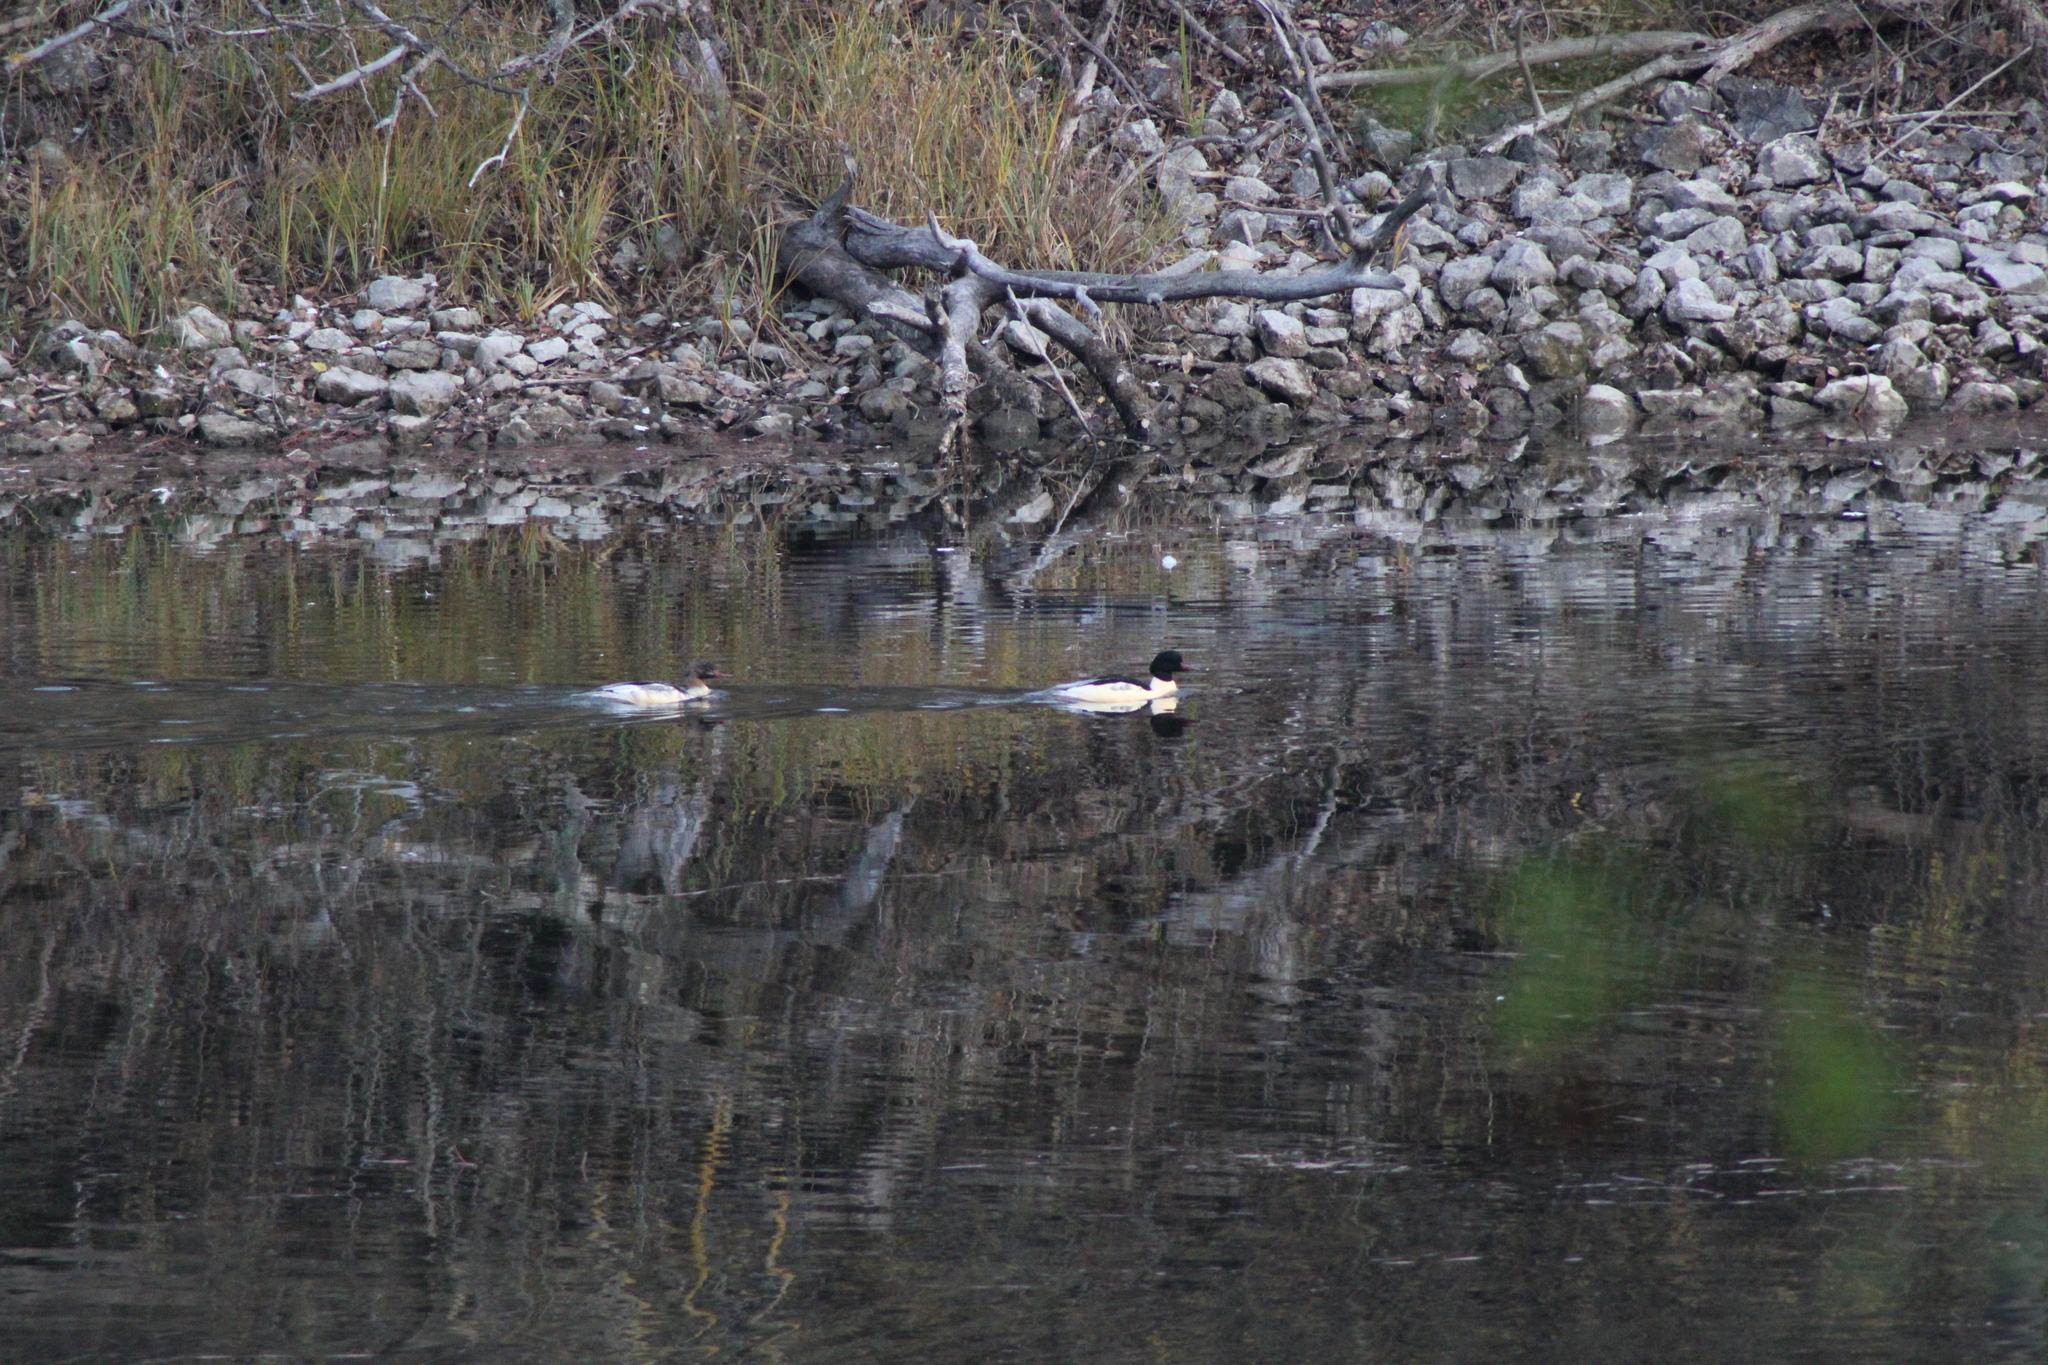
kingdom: Animalia
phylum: Chordata
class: Aves
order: Anseriformes
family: Anatidae
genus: Mergus
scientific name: Mergus merganser
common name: Common merganser
